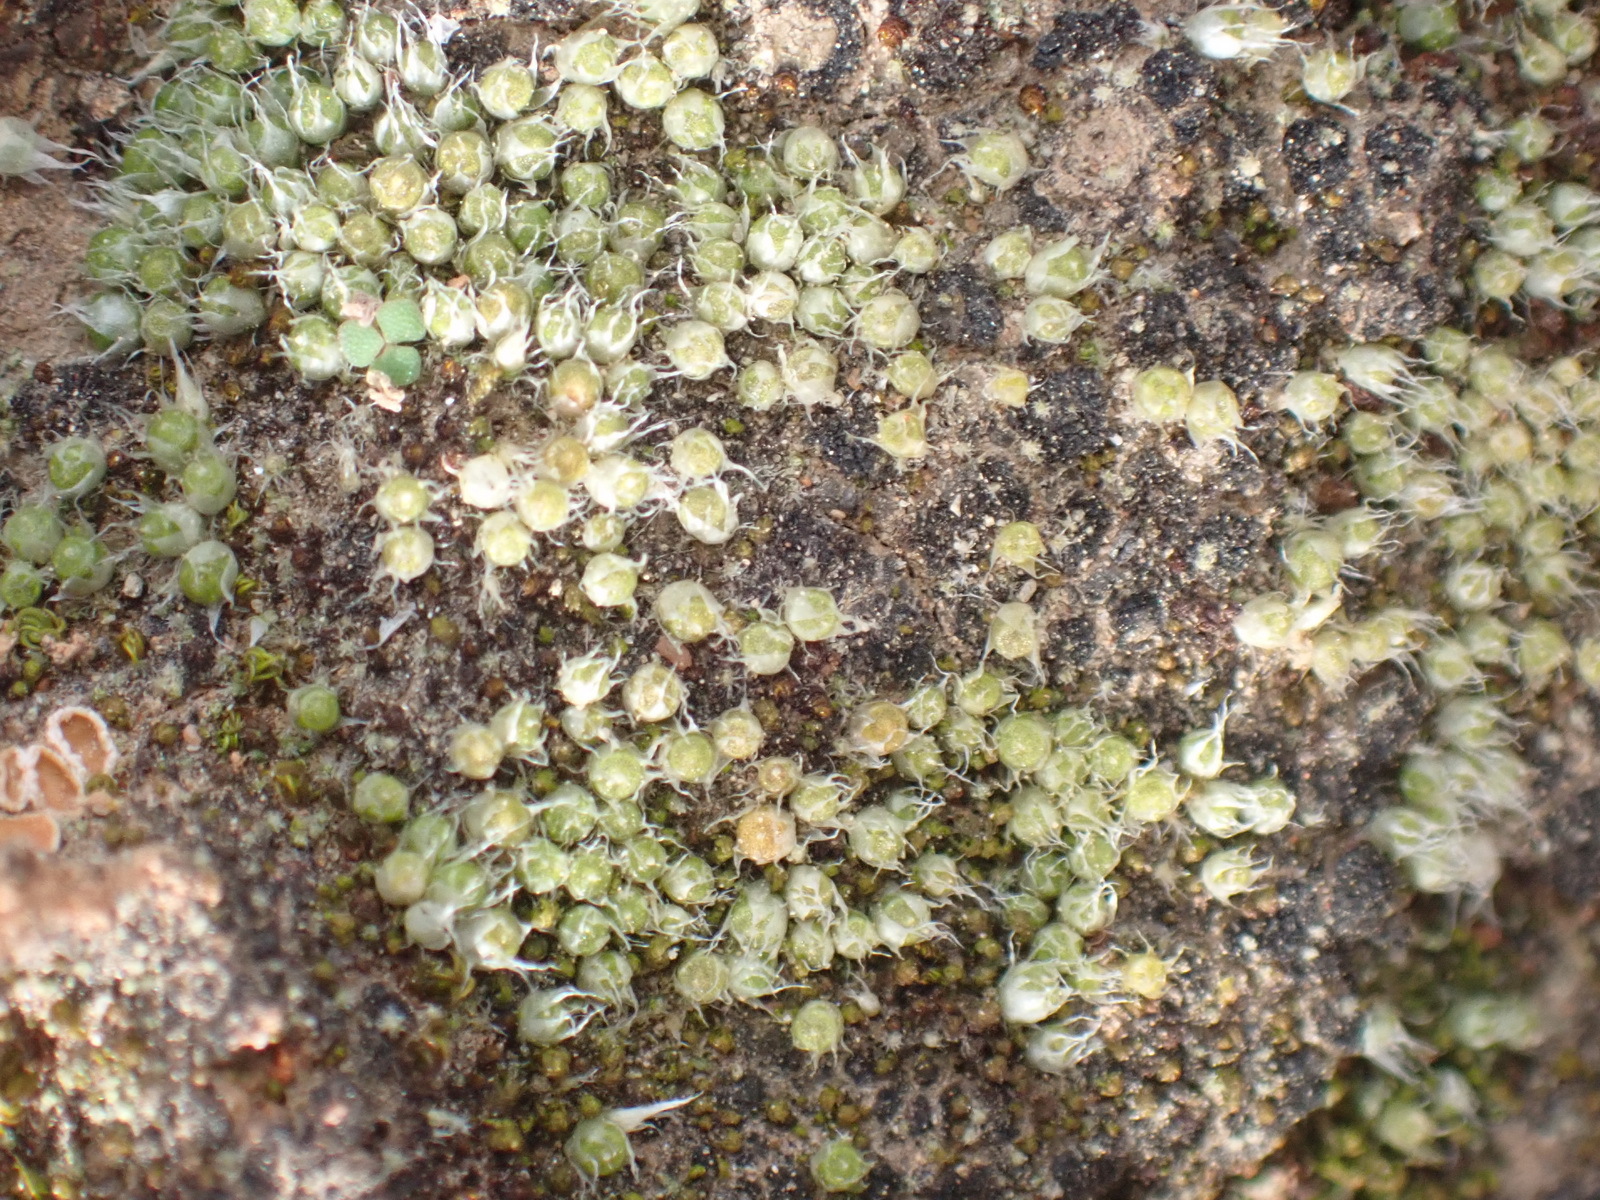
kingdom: Plantae
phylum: Bryophyta
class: Bryopsida
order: Gigaspermales
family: Gigaspermaceae
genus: Gigaspermum
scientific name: Gigaspermum repens
